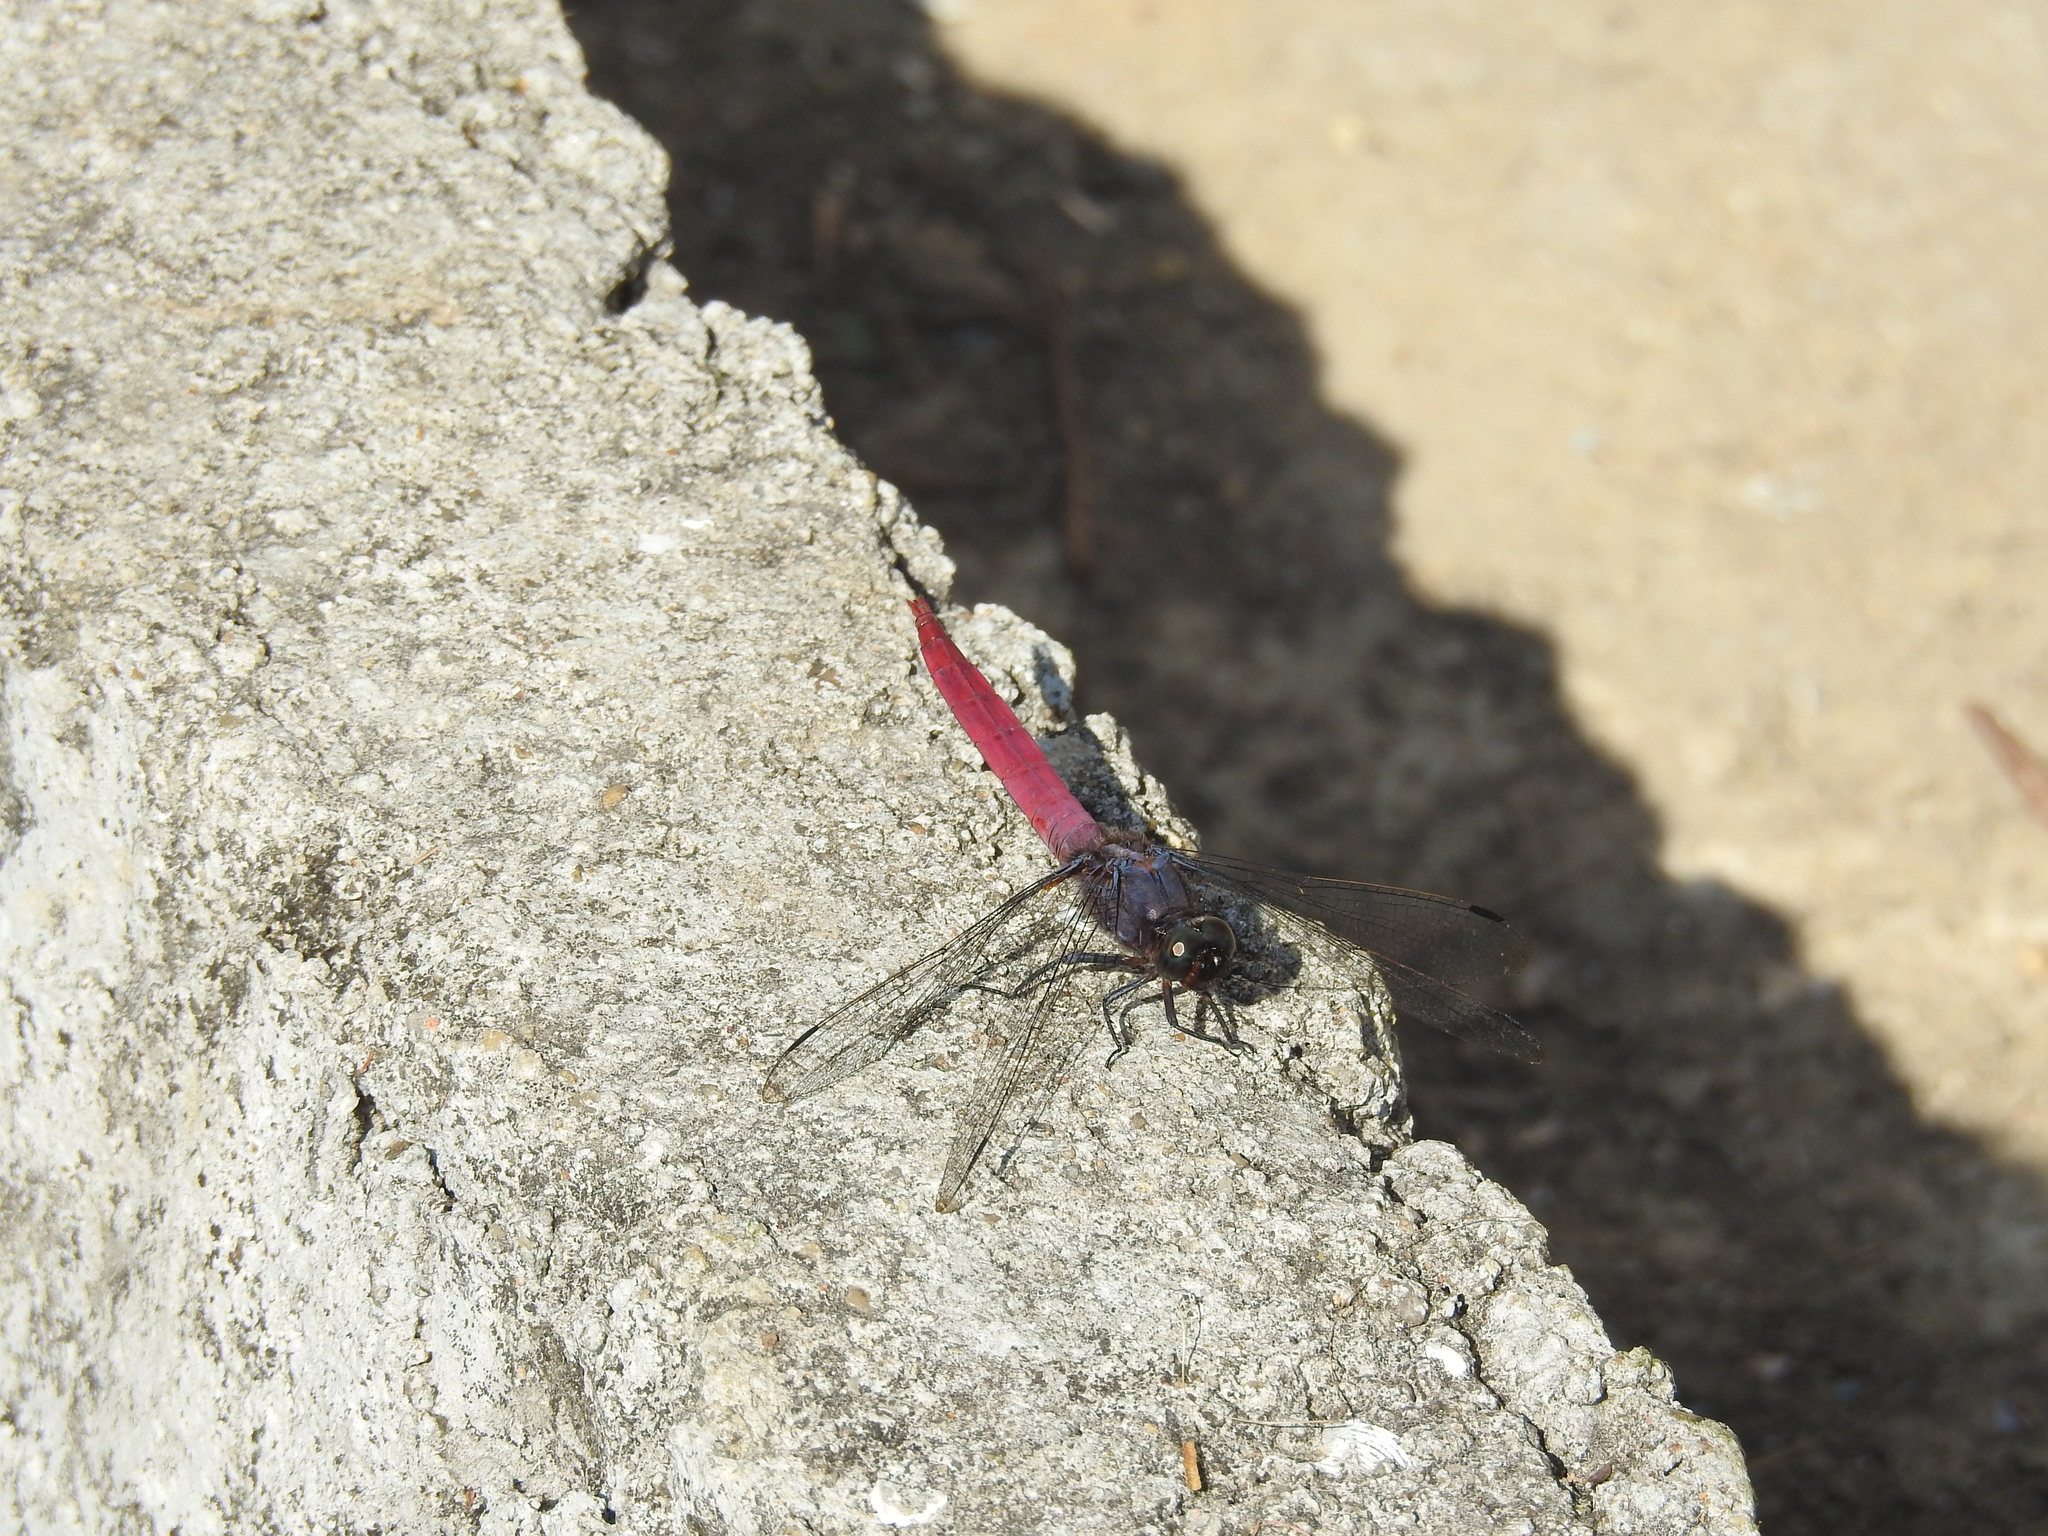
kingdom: Animalia
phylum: Arthropoda
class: Insecta
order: Odonata
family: Libellulidae
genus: Orthetrum
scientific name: Orthetrum pruinosum
